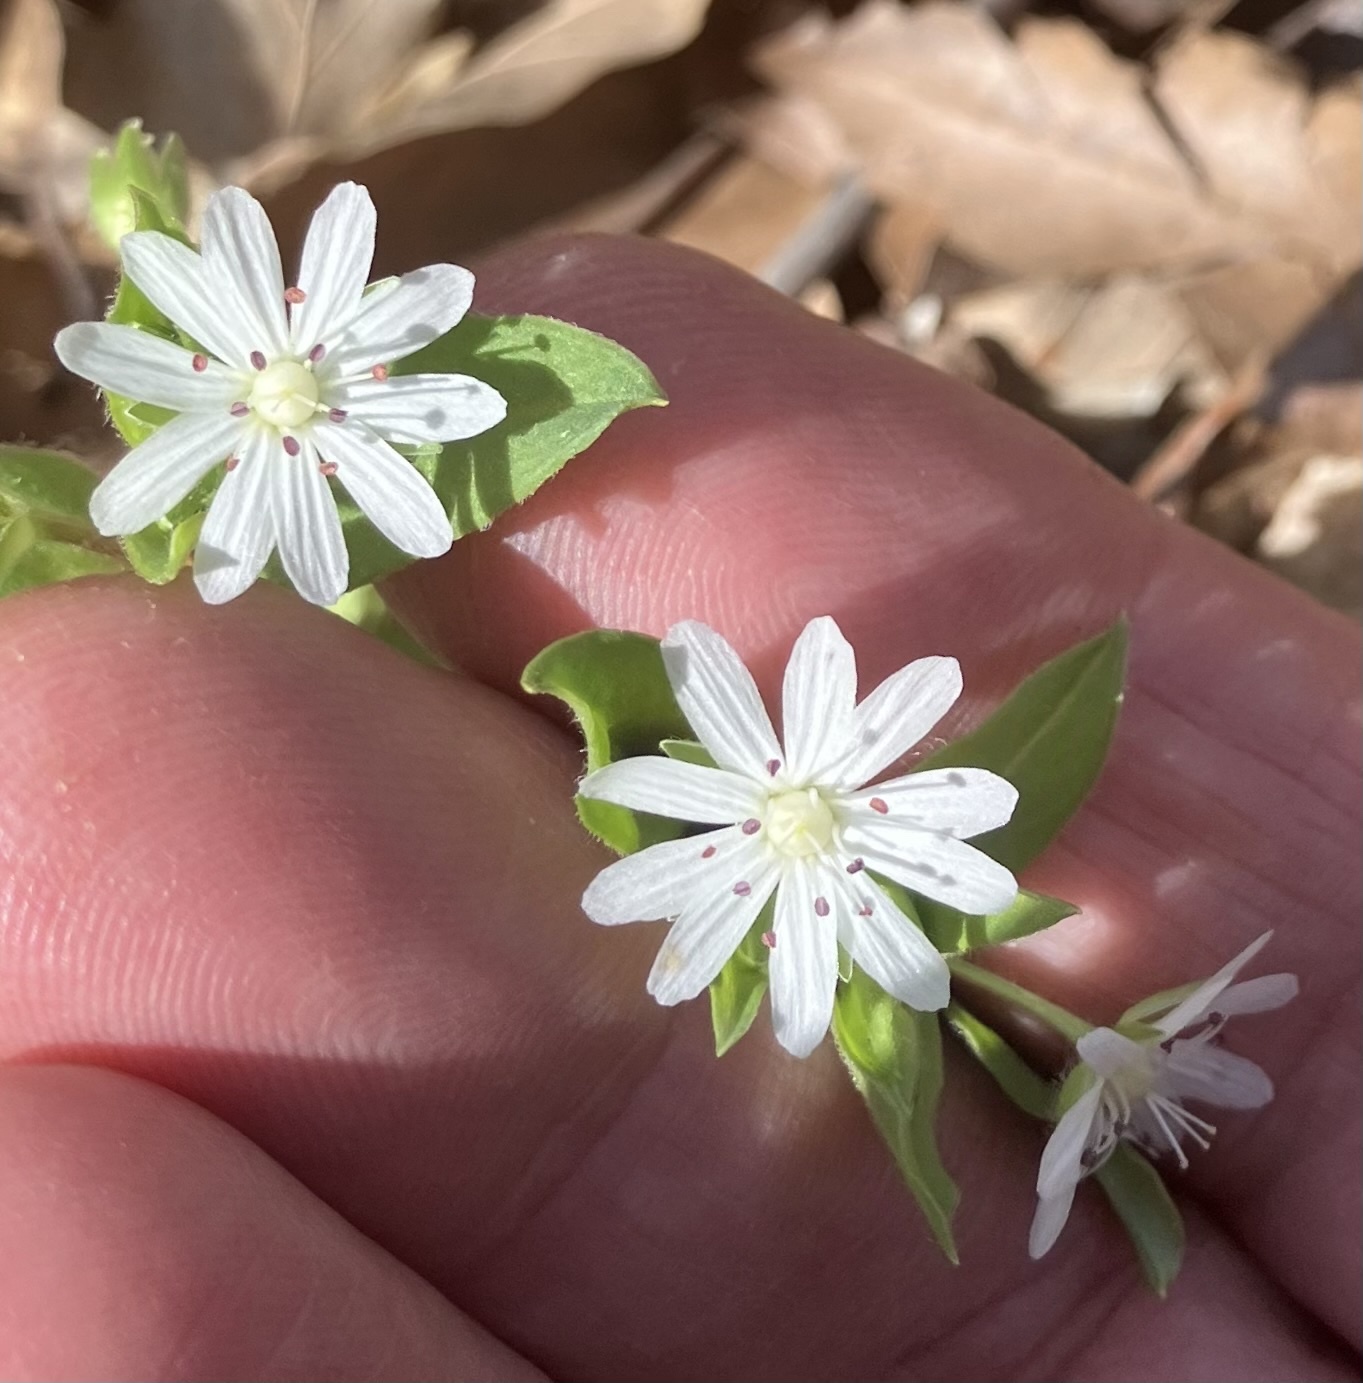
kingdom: Plantae
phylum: Tracheophyta
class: Magnoliopsida
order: Caryophyllales
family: Caryophyllaceae
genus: Stellaria
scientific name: Stellaria pubera
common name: Star chickweed
